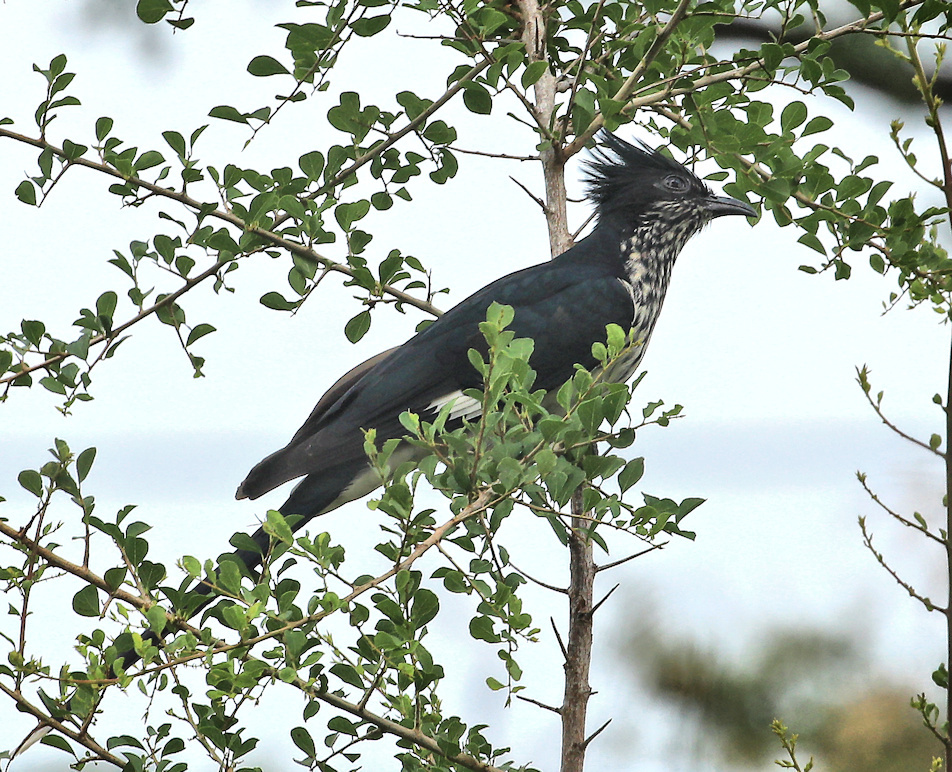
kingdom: Animalia
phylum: Chordata
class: Aves
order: Cuculiformes
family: Cuculidae
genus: Clamator
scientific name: Clamator levaillantii
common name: Levaillant's cuckoo
